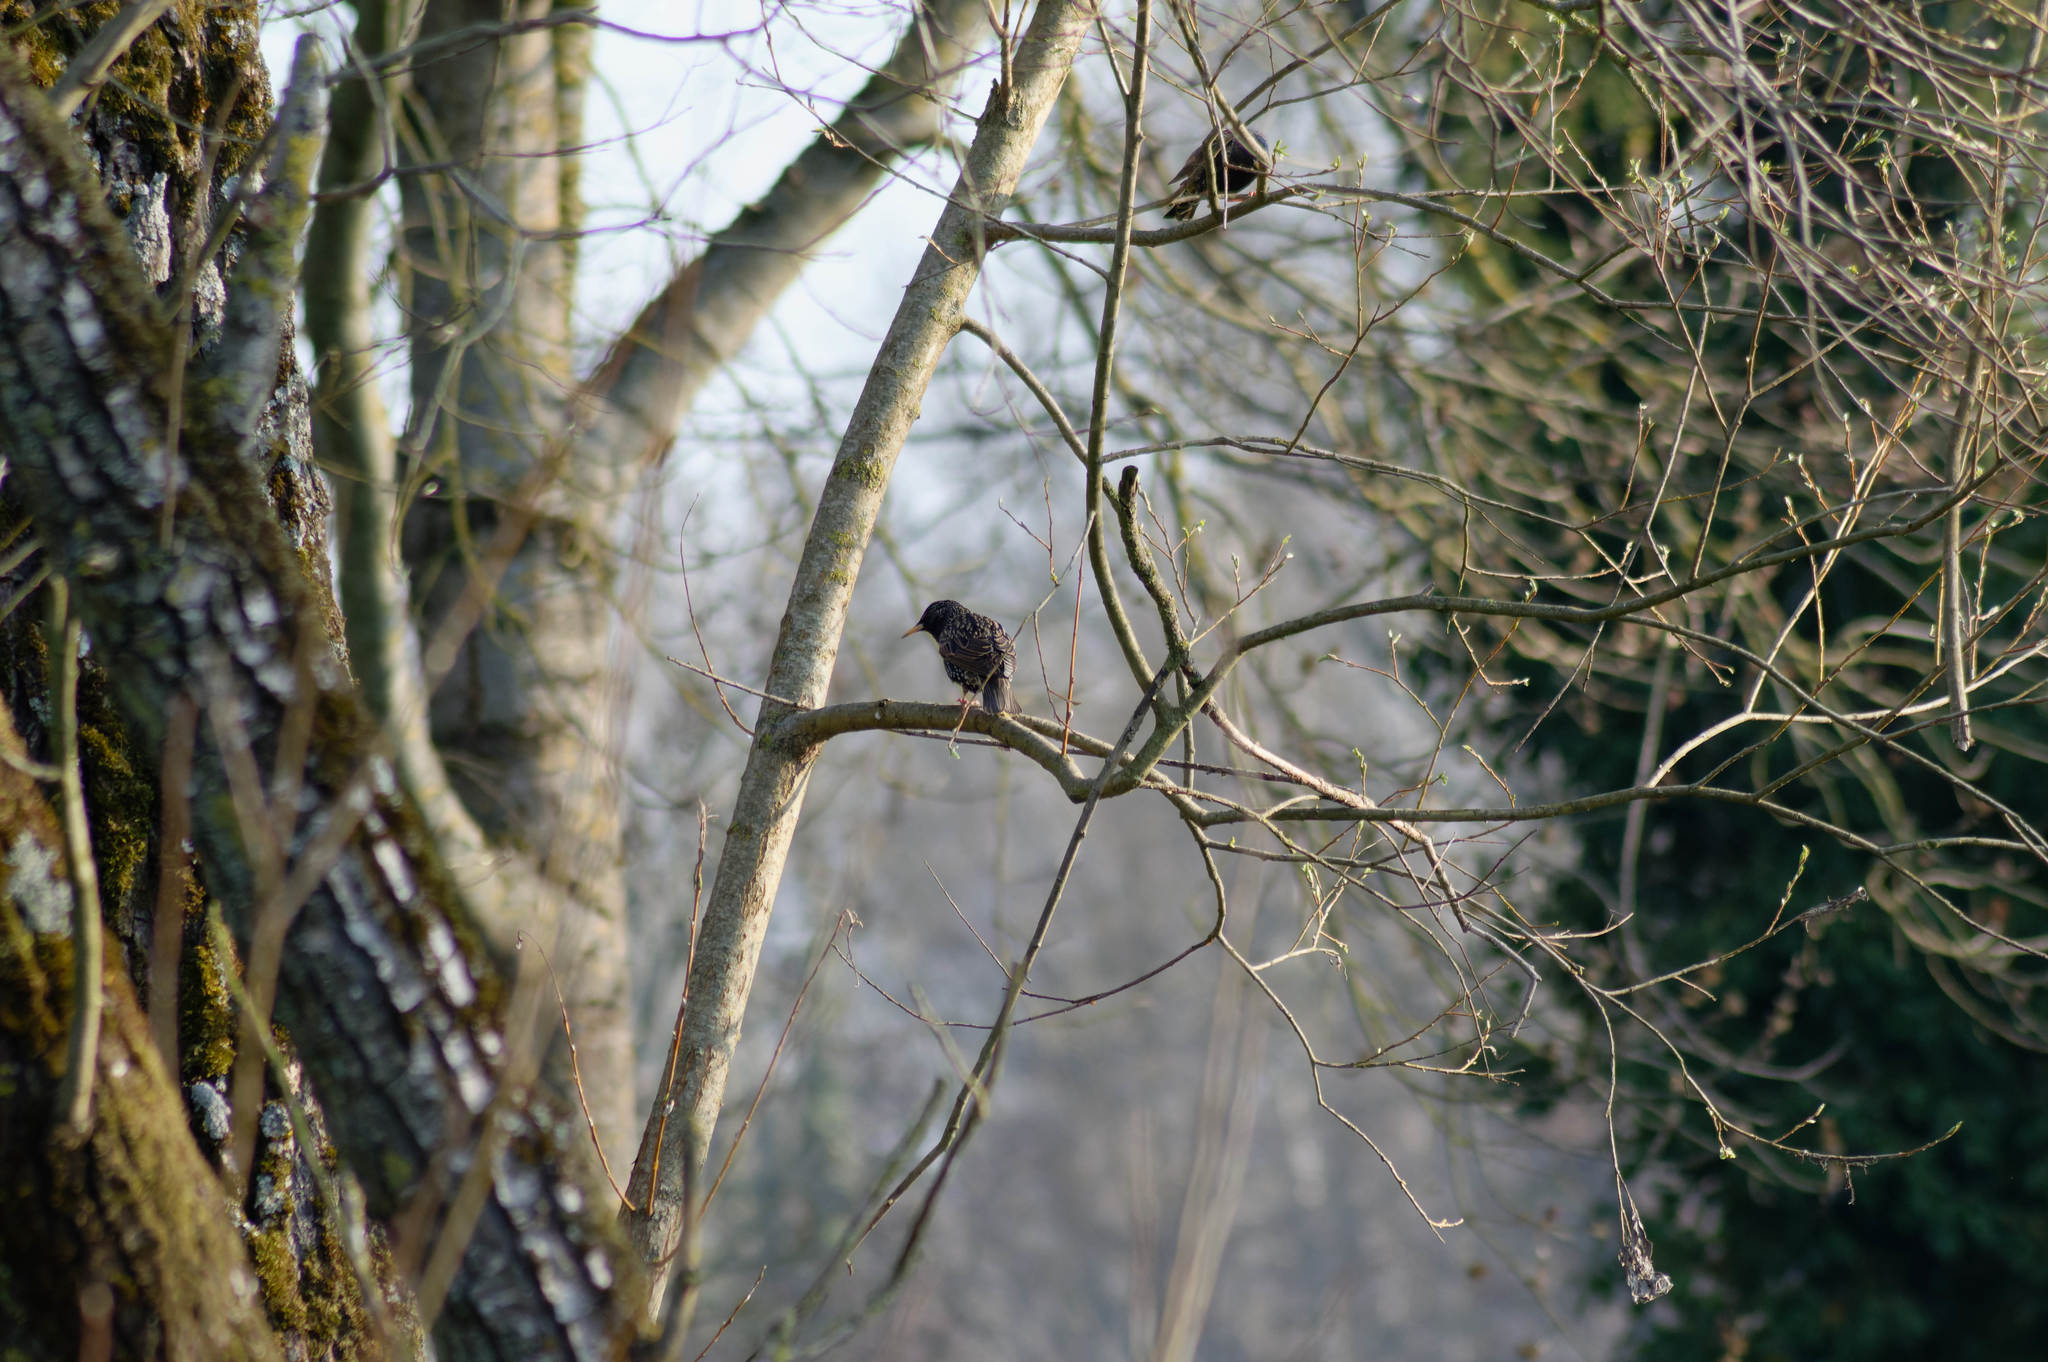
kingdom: Animalia
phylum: Chordata
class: Aves
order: Passeriformes
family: Sturnidae
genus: Sturnus
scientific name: Sturnus vulgaris
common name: Common starling
